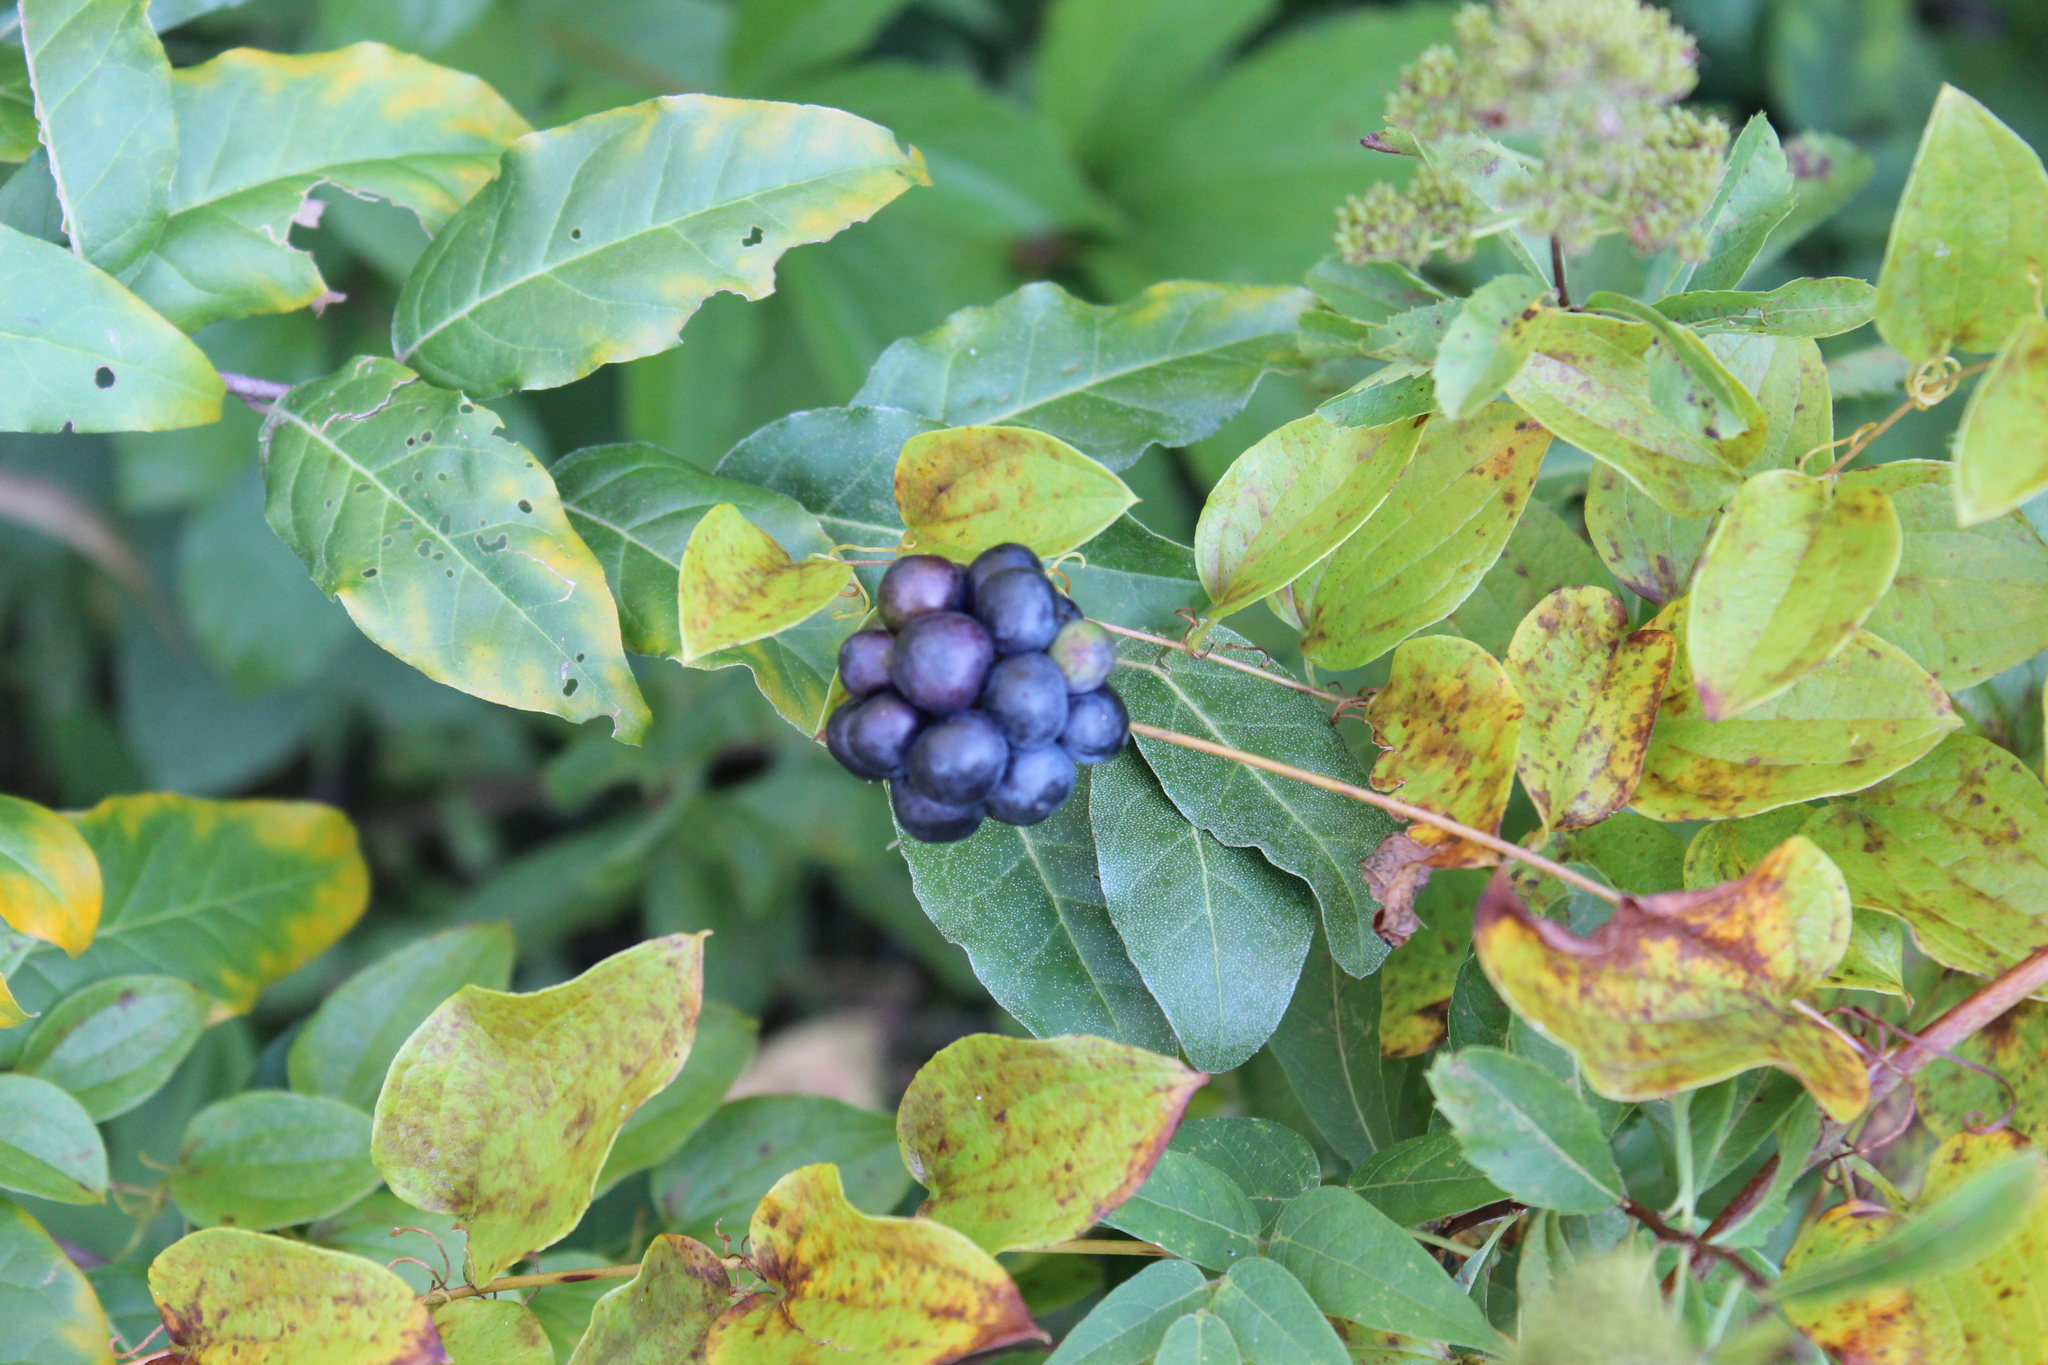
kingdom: Plantae
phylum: Tracheophyta
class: Liliopsida
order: Liliales
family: Smilacaceae
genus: Smilax
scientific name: Smilax herbacea
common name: Jacob's-ladder
